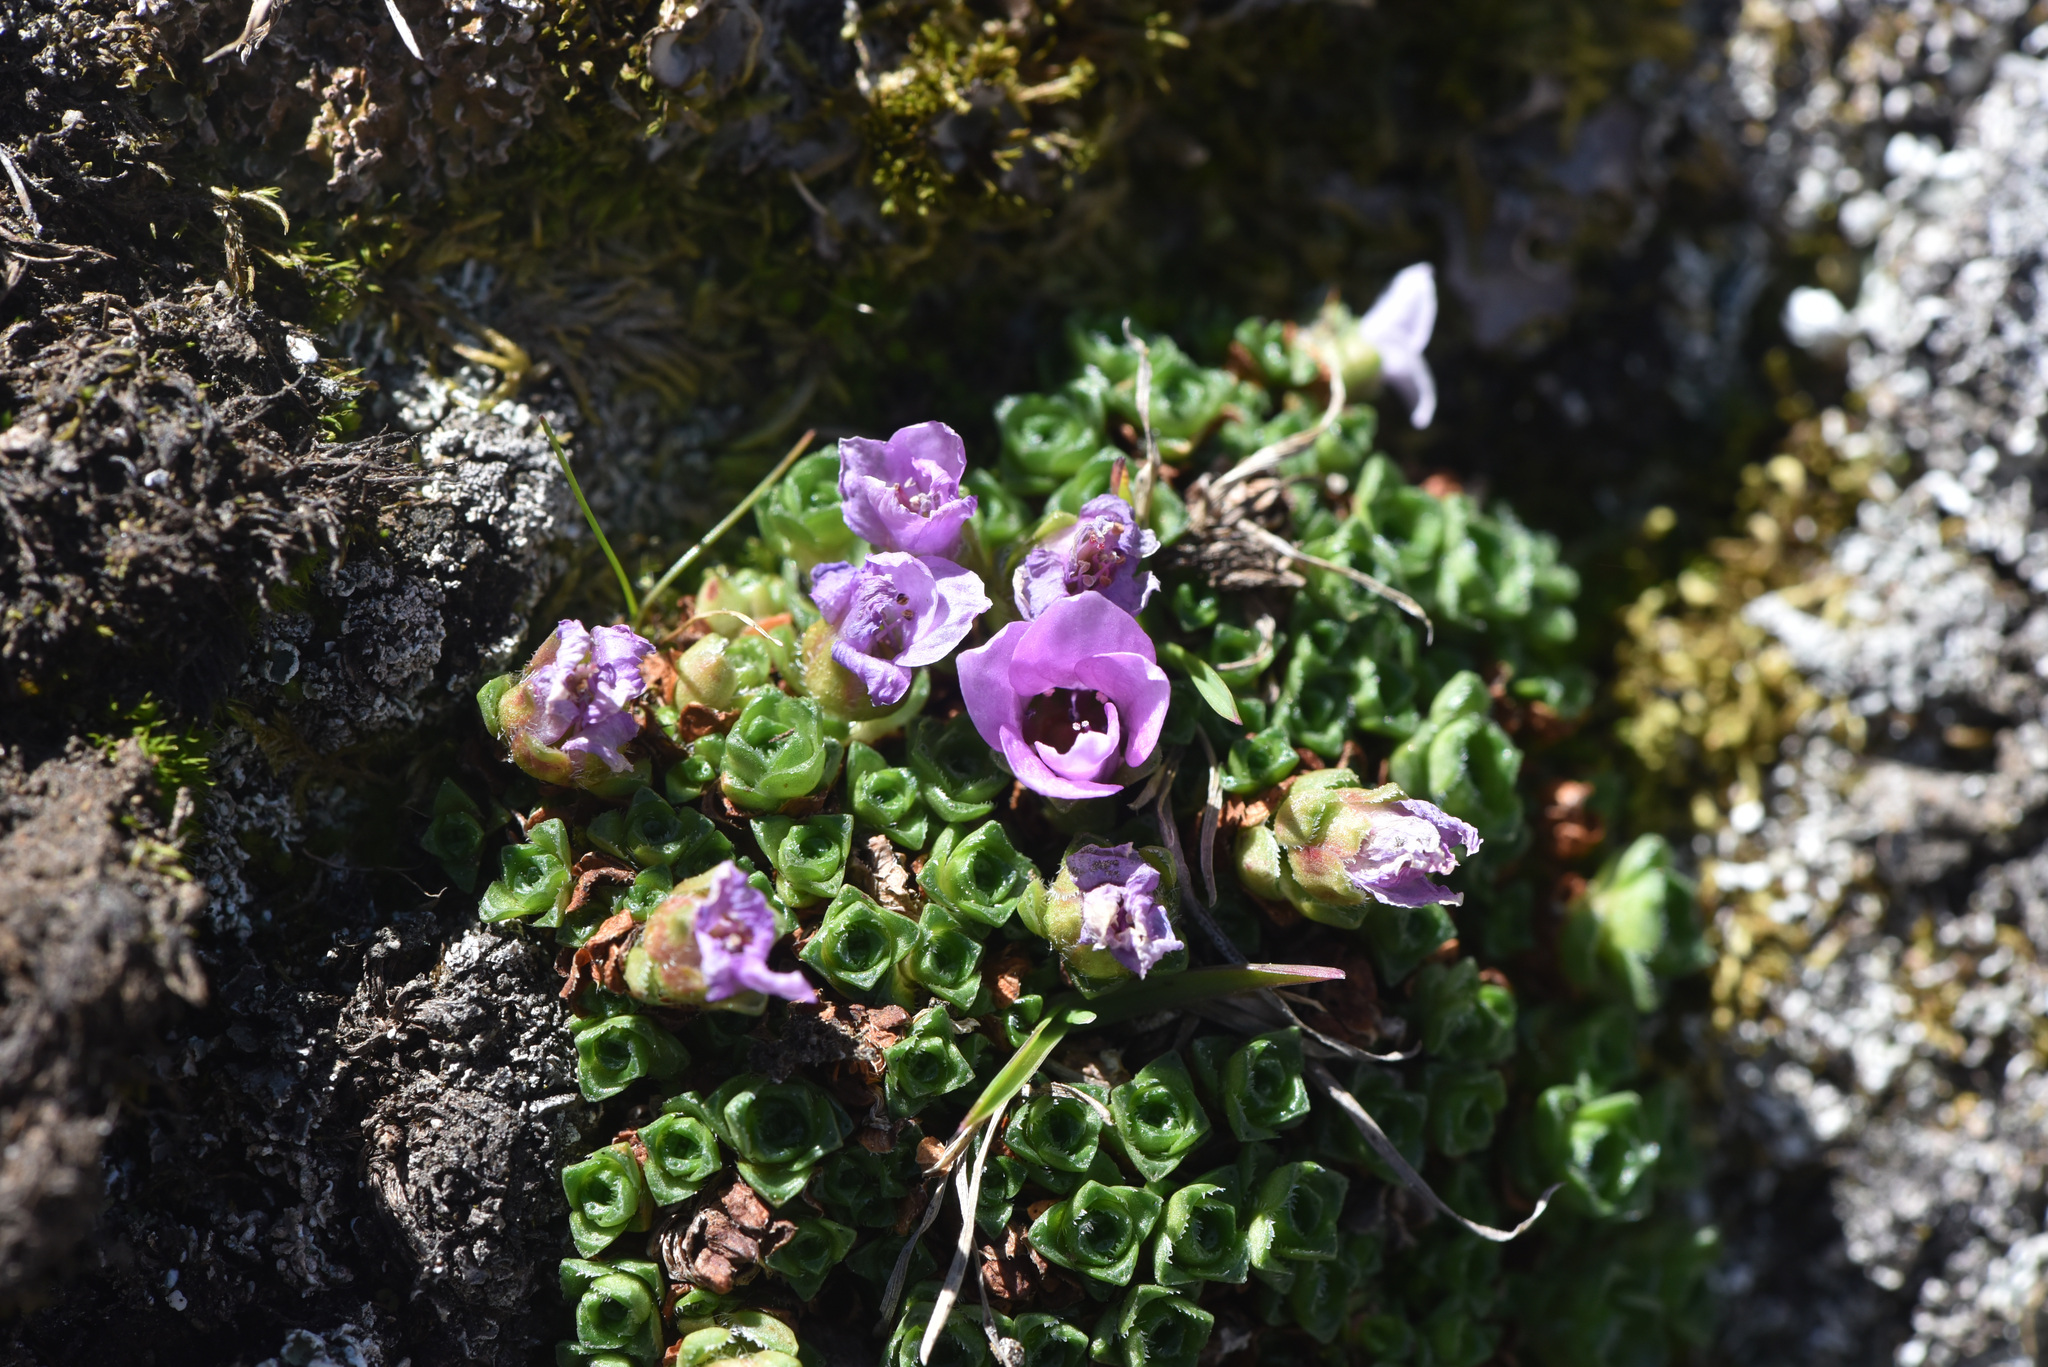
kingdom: Plantae
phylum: Tracheophyta
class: Magnoliopsida
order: Saxifragales
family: Saxifragaceae
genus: Saxifraga
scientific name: Saxifraga oppositifolia
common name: Purple saxifrage
